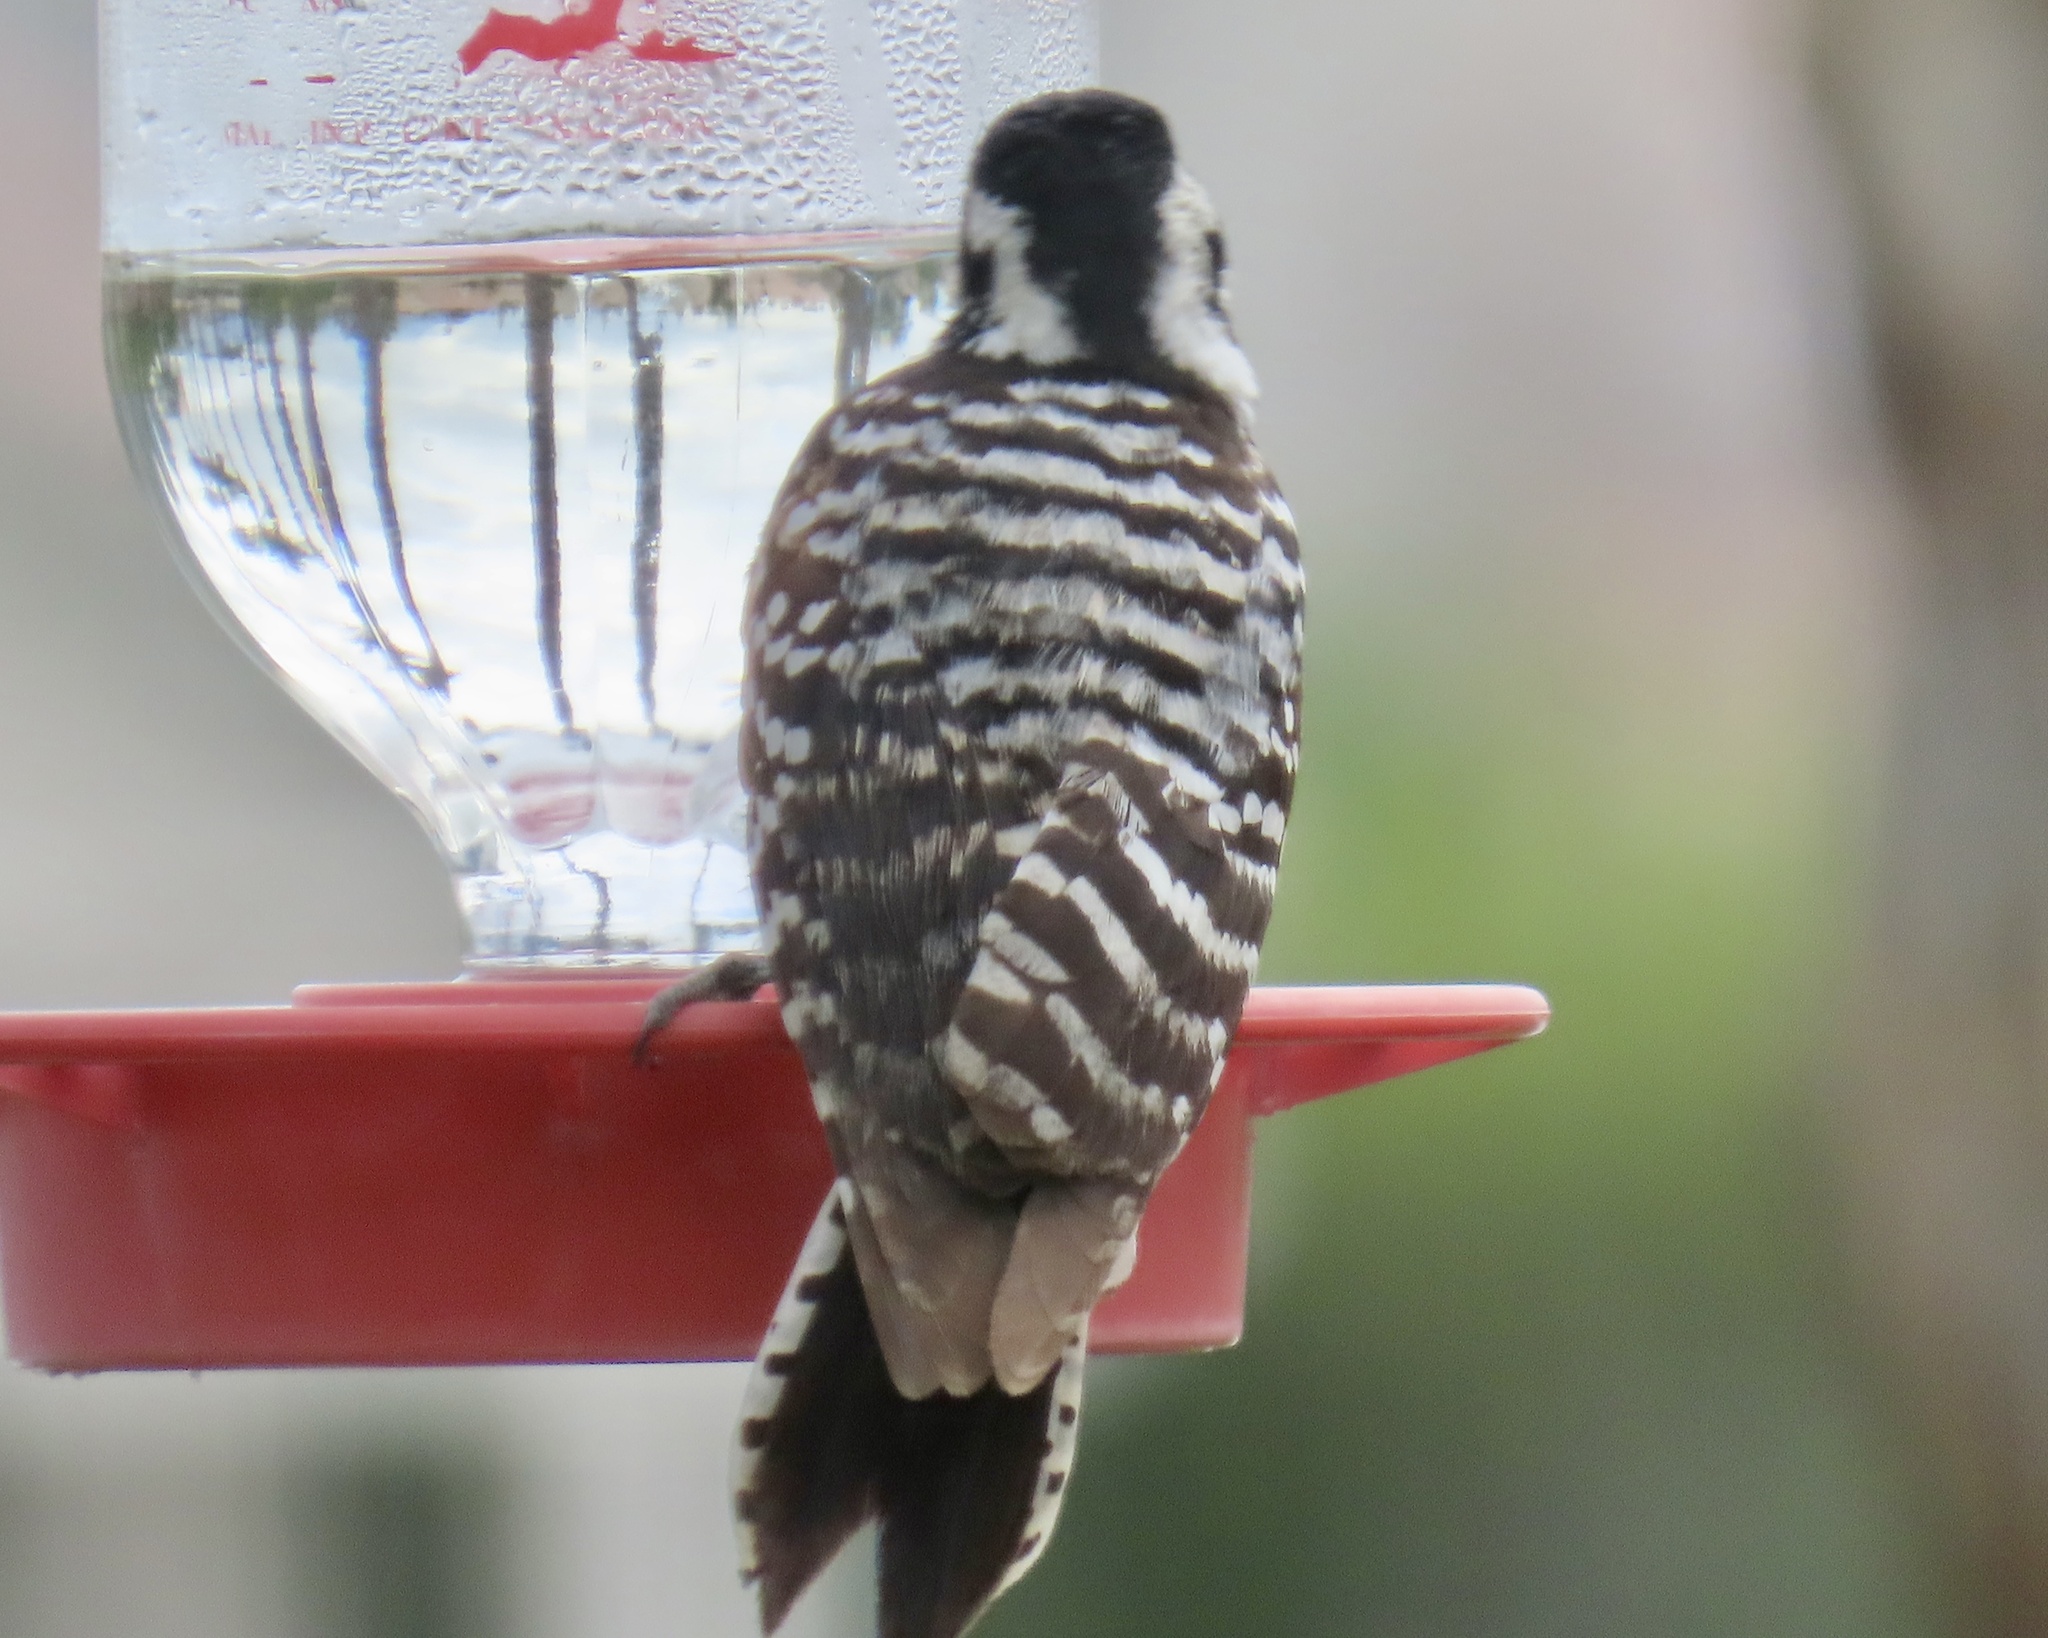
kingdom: Animalia
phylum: Chordata
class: Aves
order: Piciformes
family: Picidae
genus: Dryobates
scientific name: Dryobates nuttallii
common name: Nuttall's woodpecker
